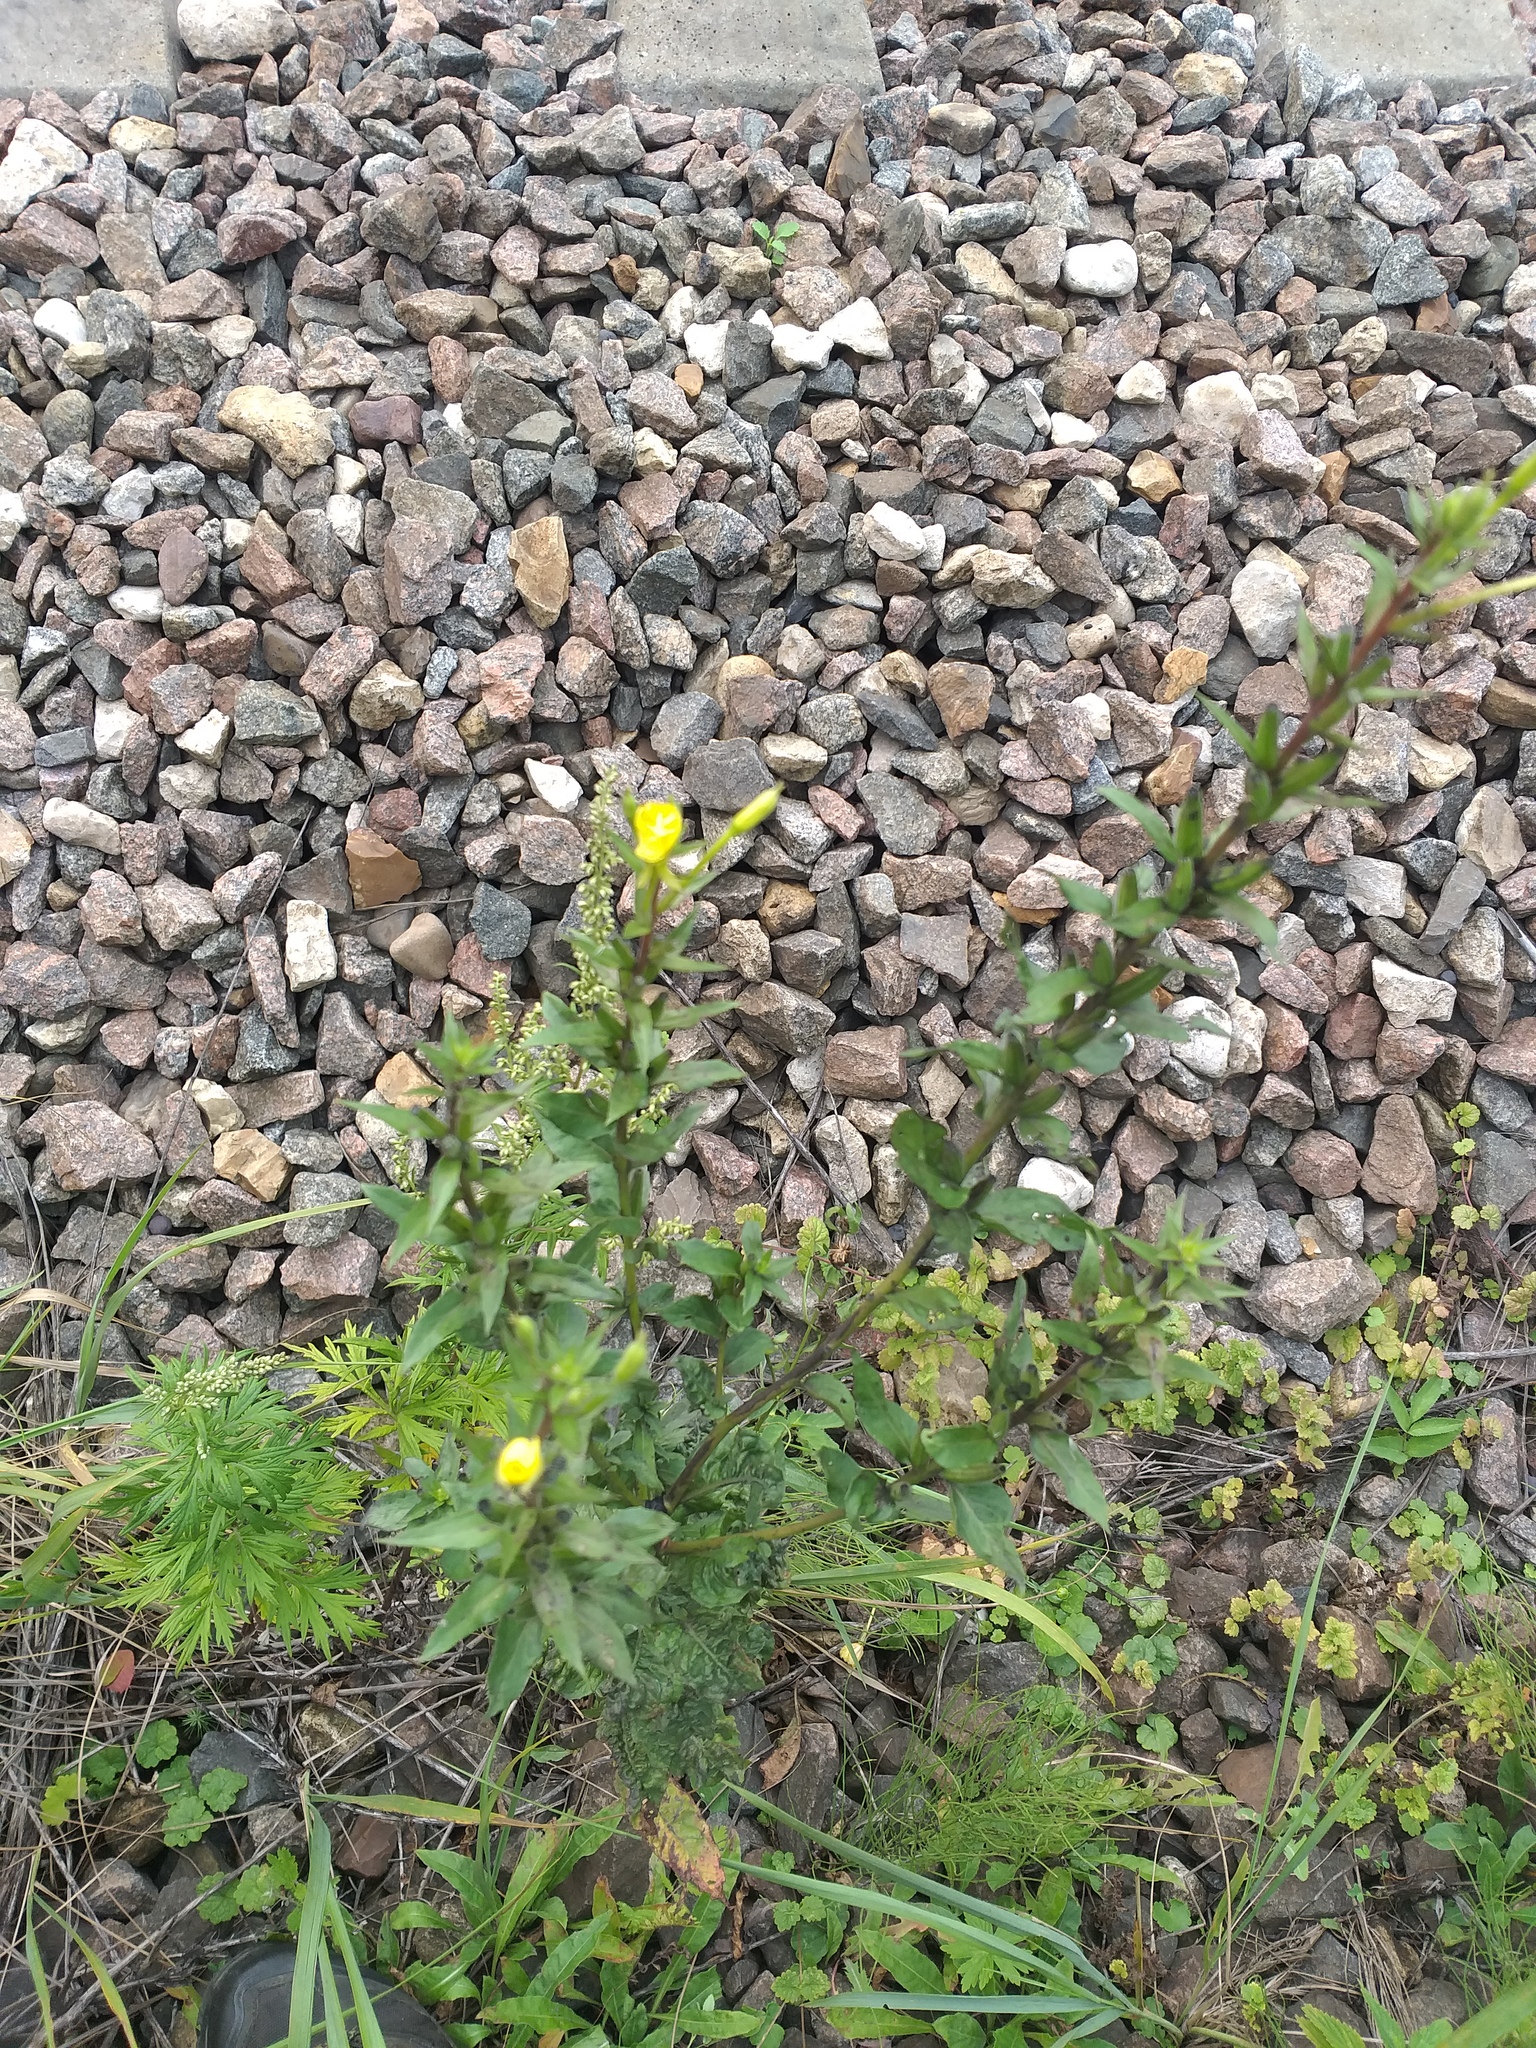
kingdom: Plantae
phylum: Tracheophyta
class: Magnoliopsida
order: Myrtales
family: Onagraceae
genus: Oenothera
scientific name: Oenothera rubricaulis
